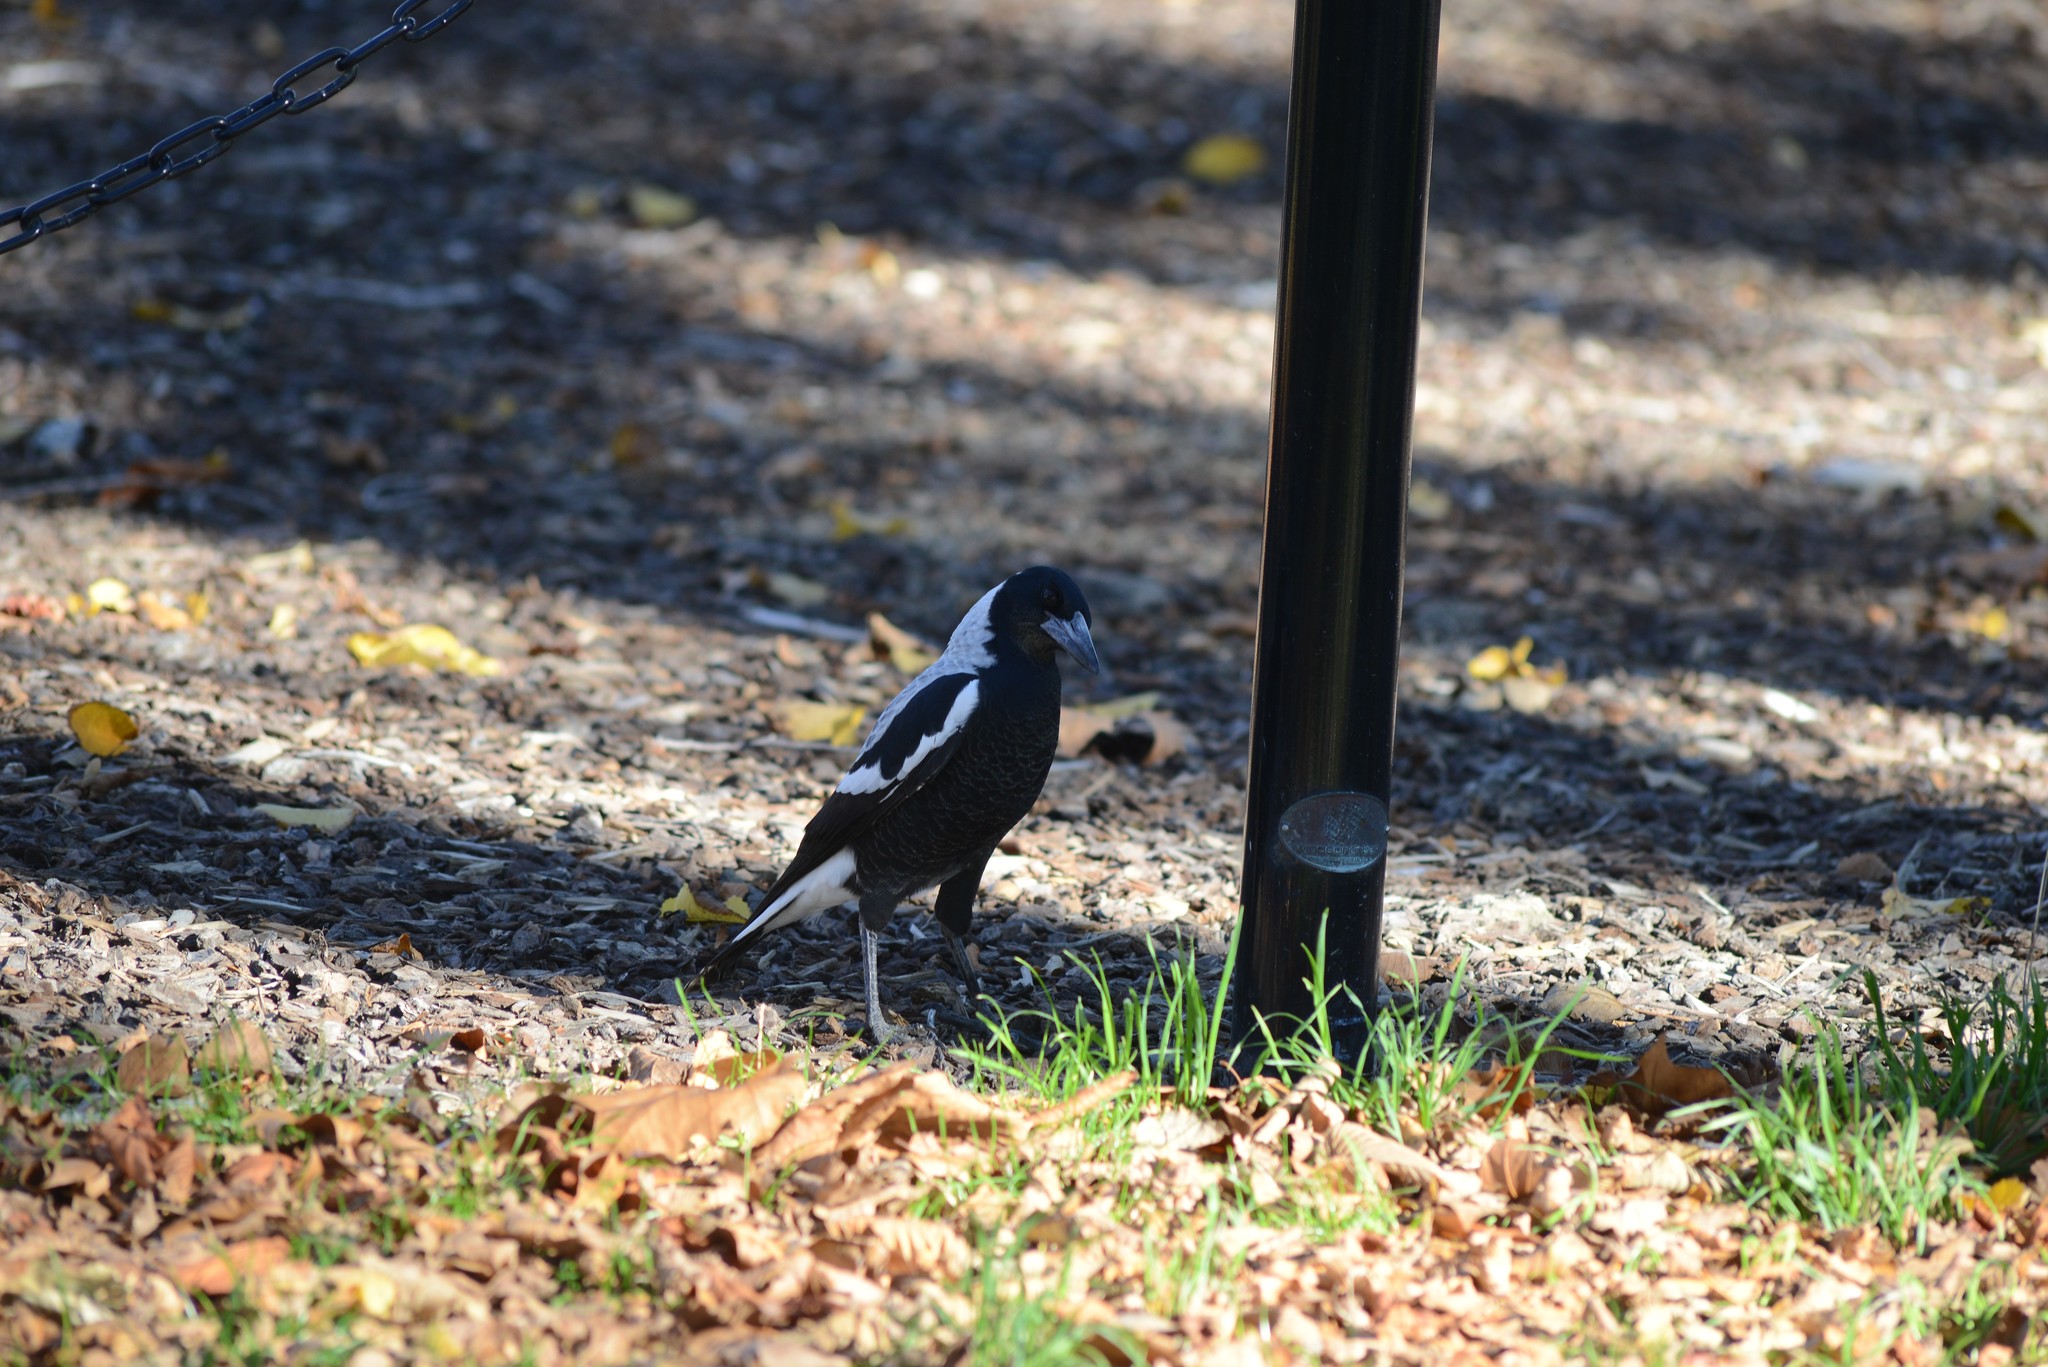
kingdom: Animalia
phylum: Chordata
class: Aves
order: Passeriformes
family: Cracticidae
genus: Gymnorhina
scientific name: Gymnorhina tibicen
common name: Australian magpie
